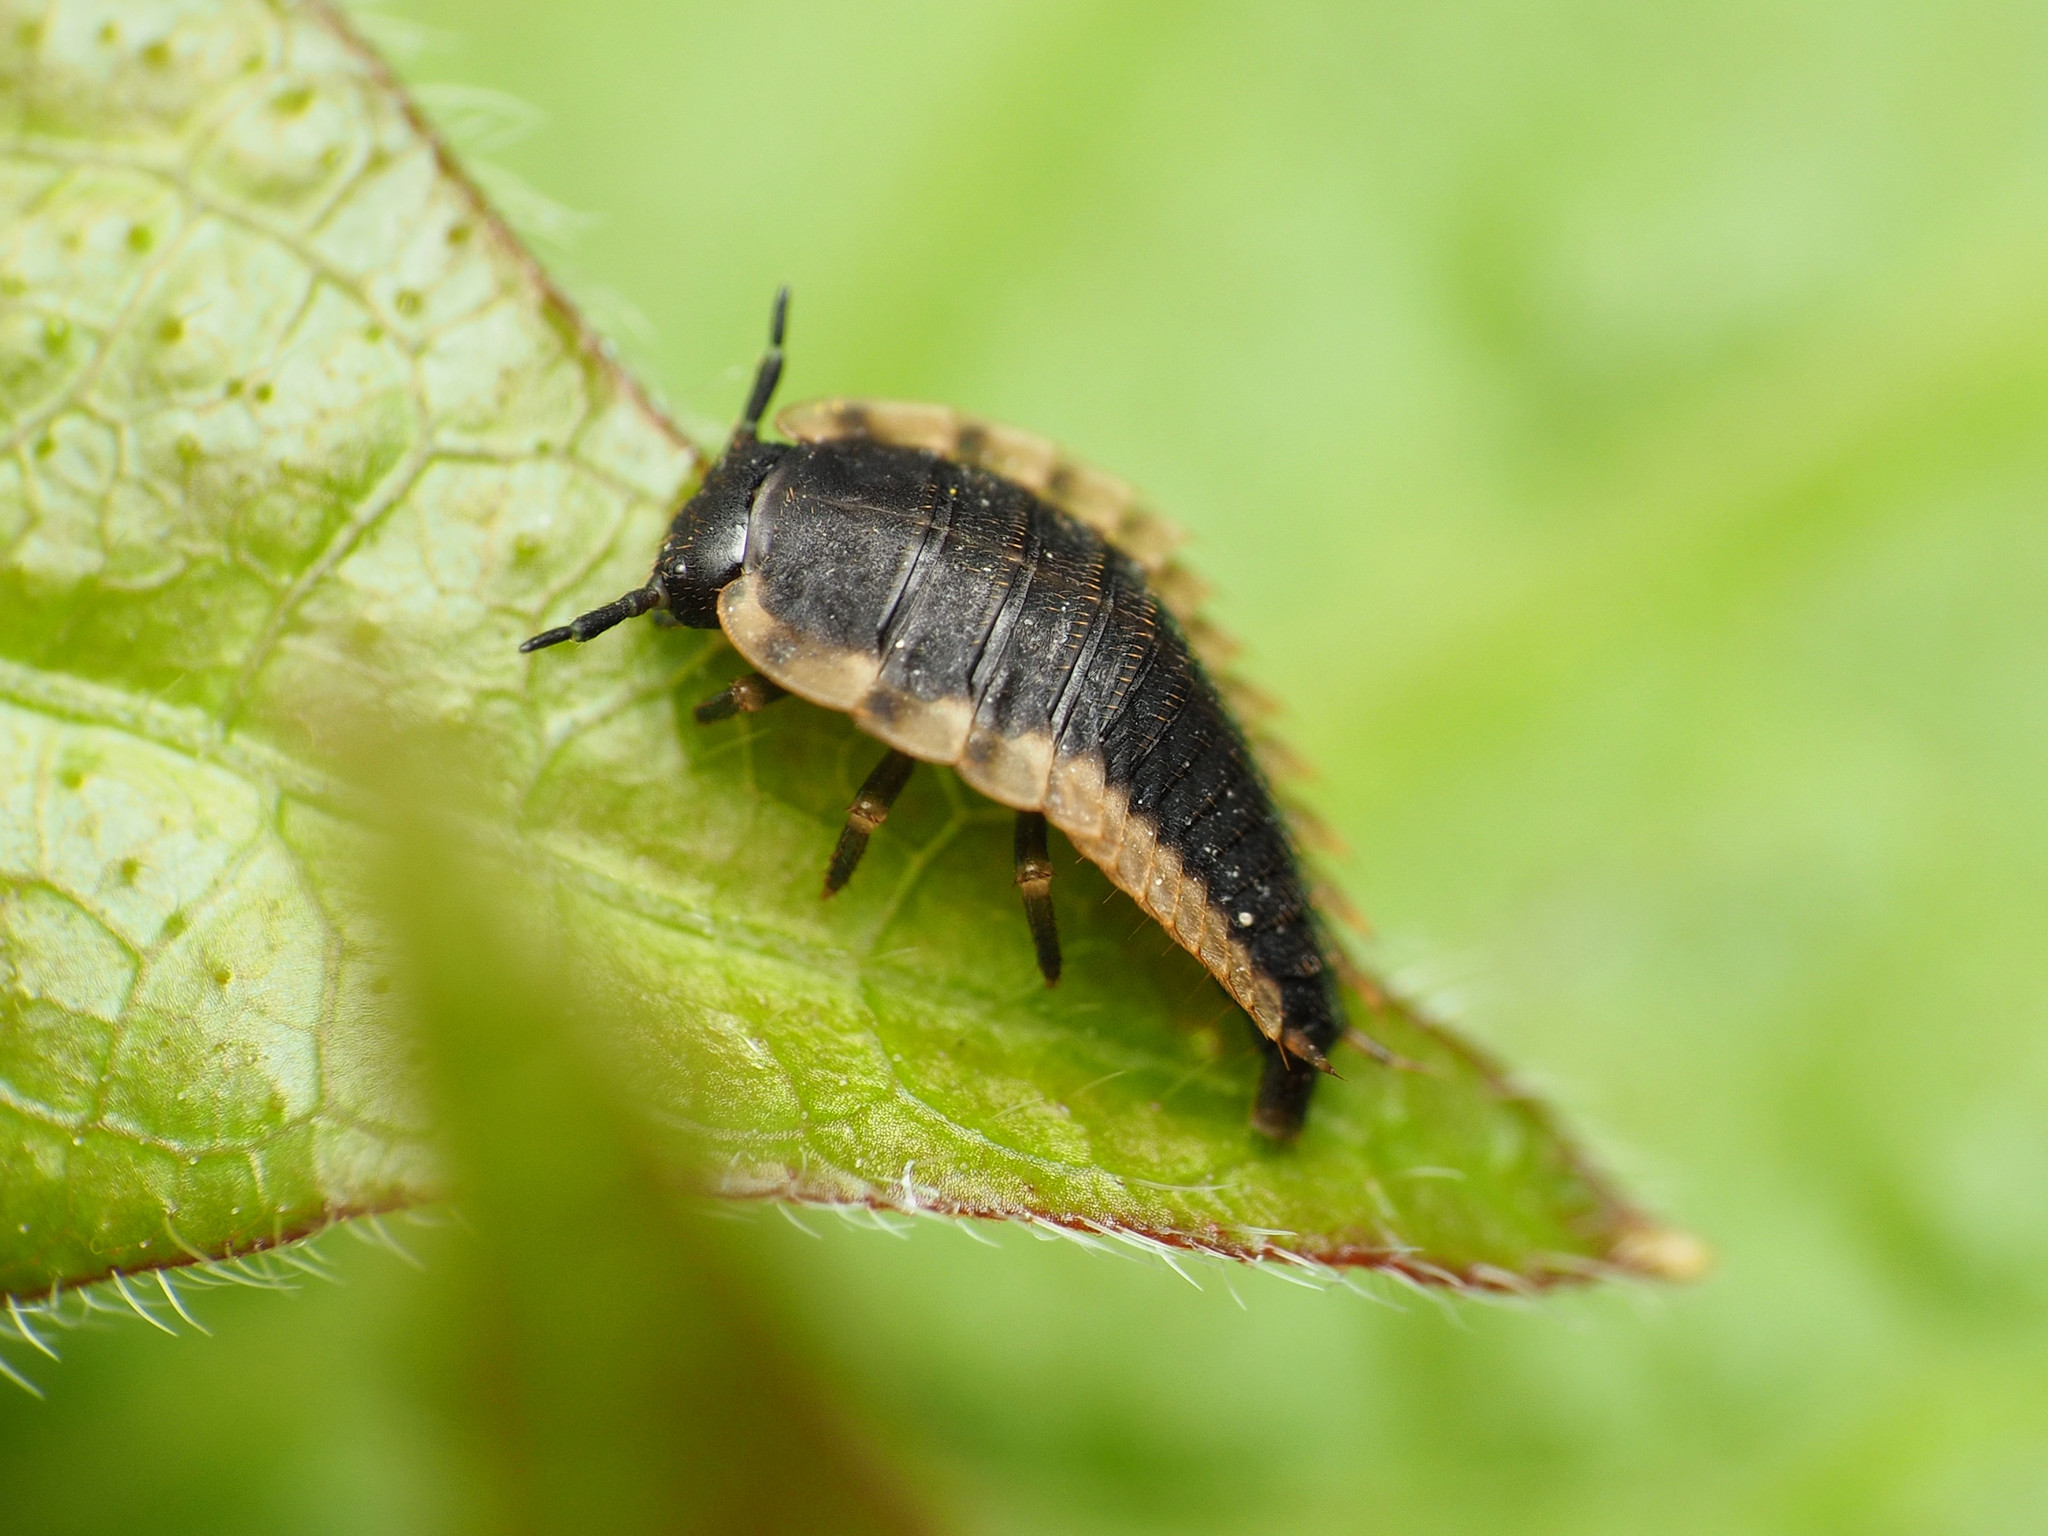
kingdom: Animalia
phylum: Arthropoda
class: Insecta
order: Coleoptera
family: Staphylinidae
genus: Oiceoptoma
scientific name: Oiceoptoma noveboracense
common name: Margined carrion beetle
